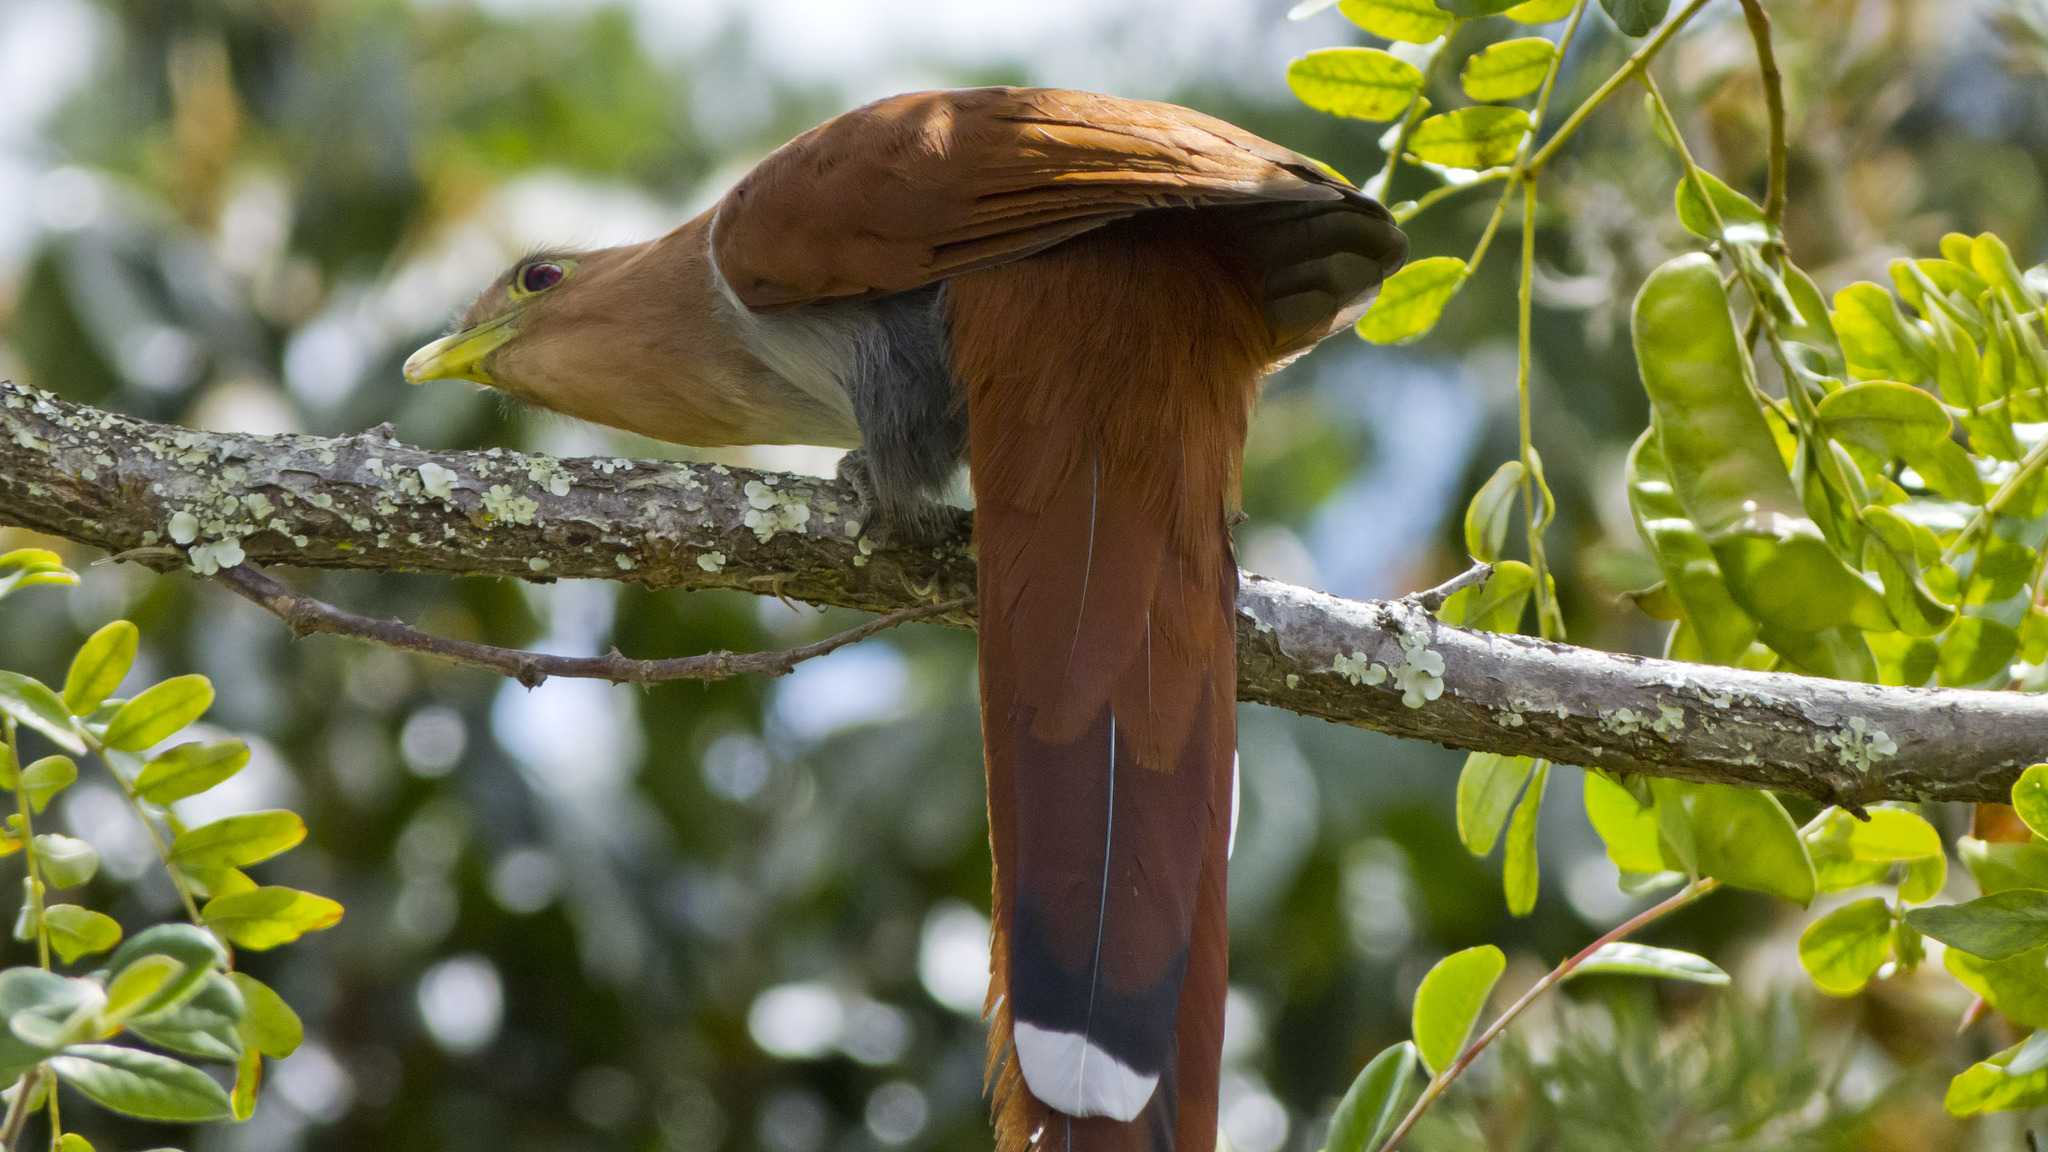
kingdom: Animalia
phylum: Chordata
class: Aves
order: Cuculiformes
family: Cuculidae
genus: Piaya
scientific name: Piaya cayana
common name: Squirrel cuckoo
